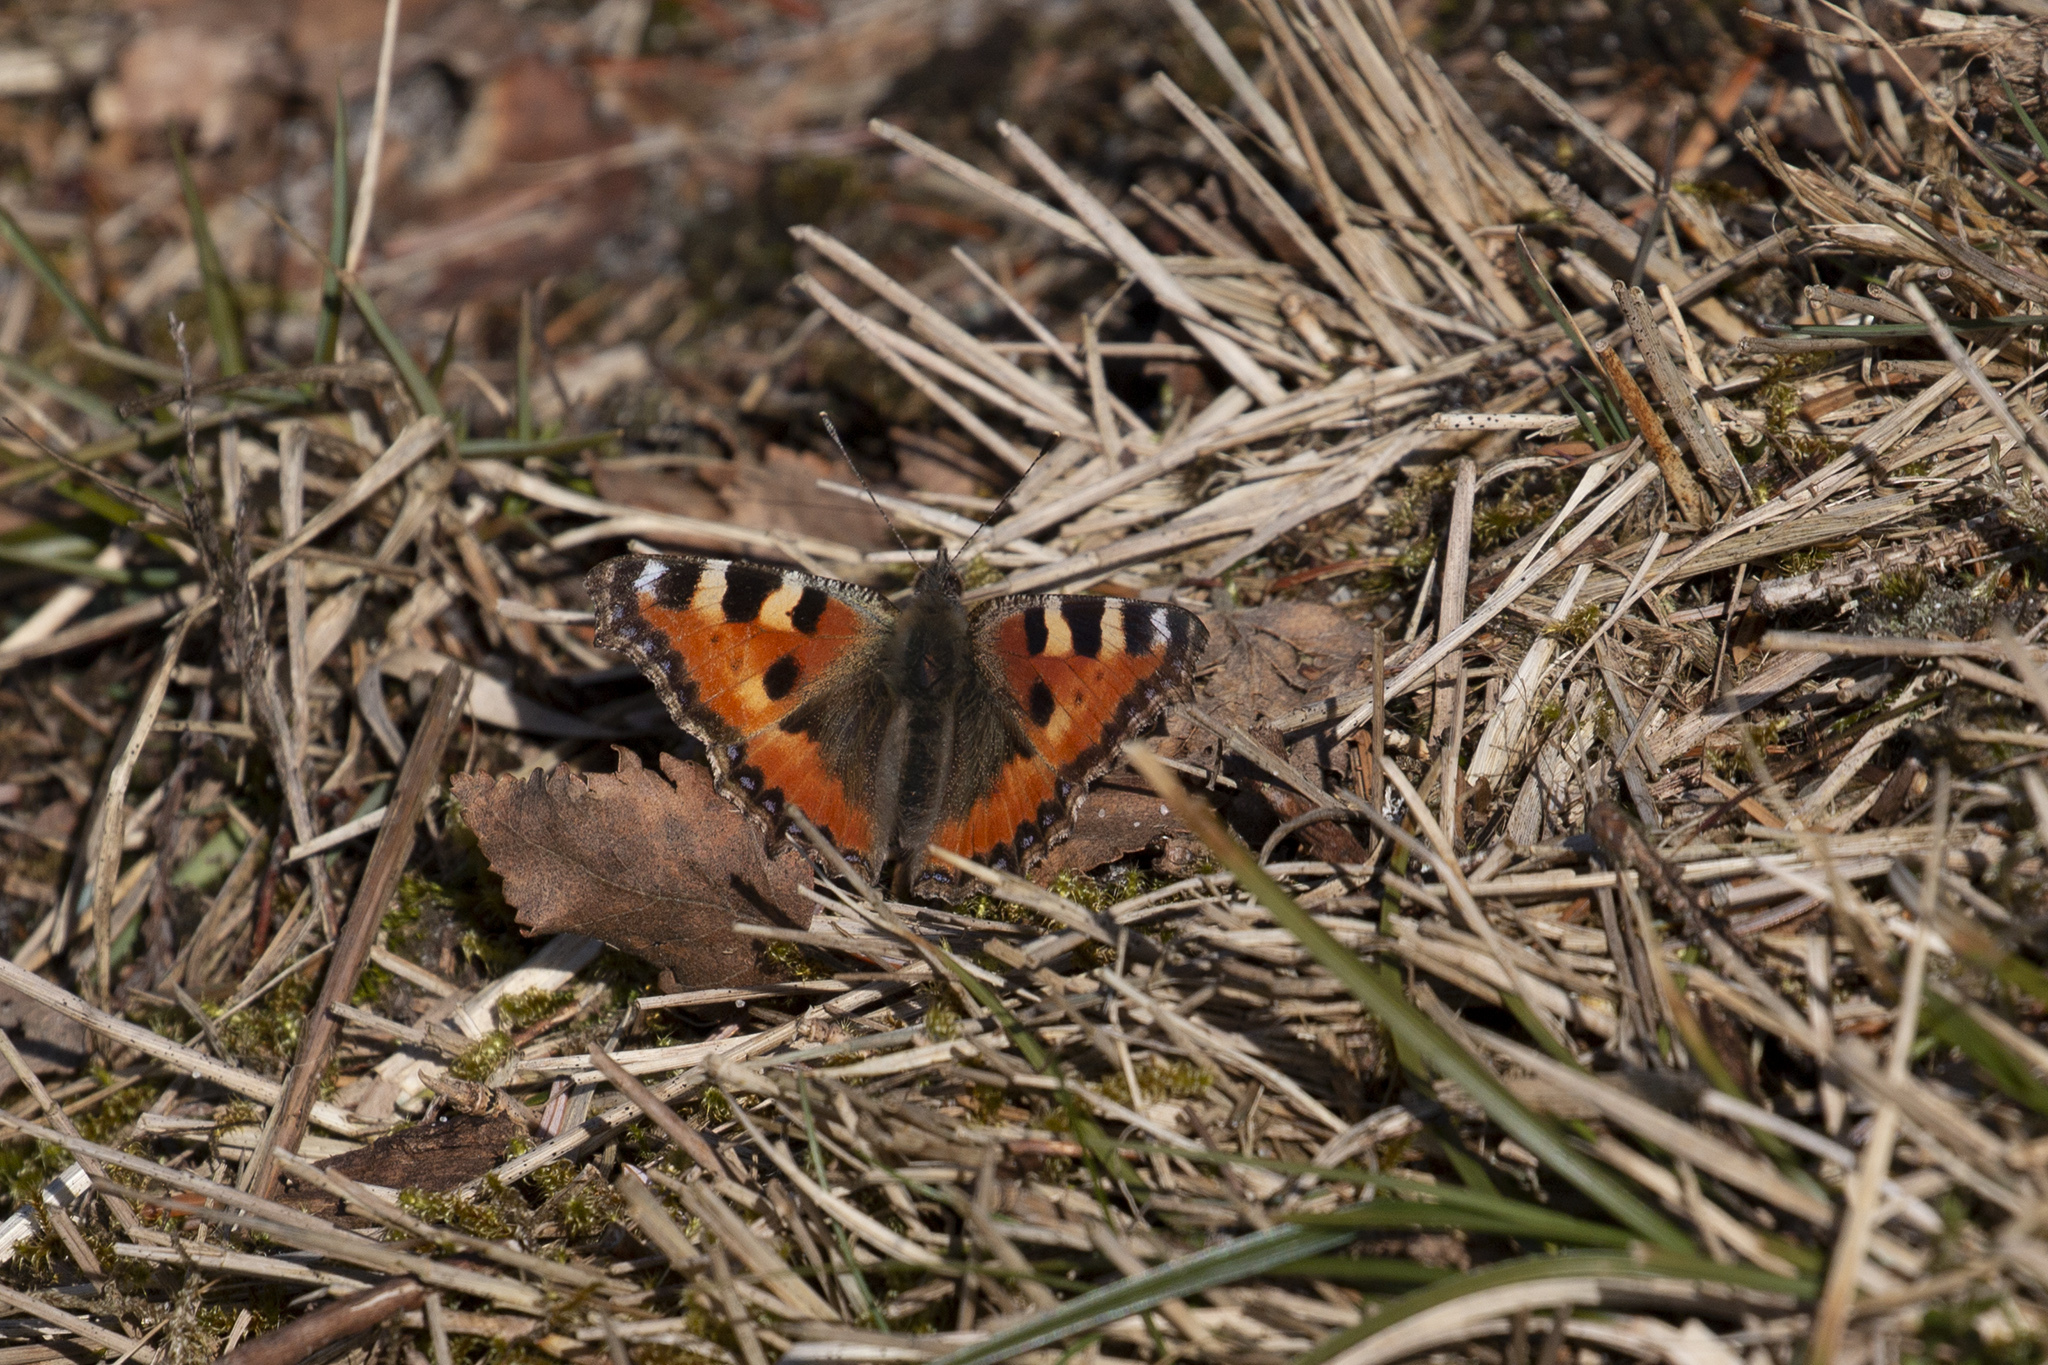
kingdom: Animalia
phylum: Arthropoda
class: Insecta
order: Lepidoptera
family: Nymphalidae
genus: Aglais
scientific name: Aglais urticae
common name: Small tortoiseshell
